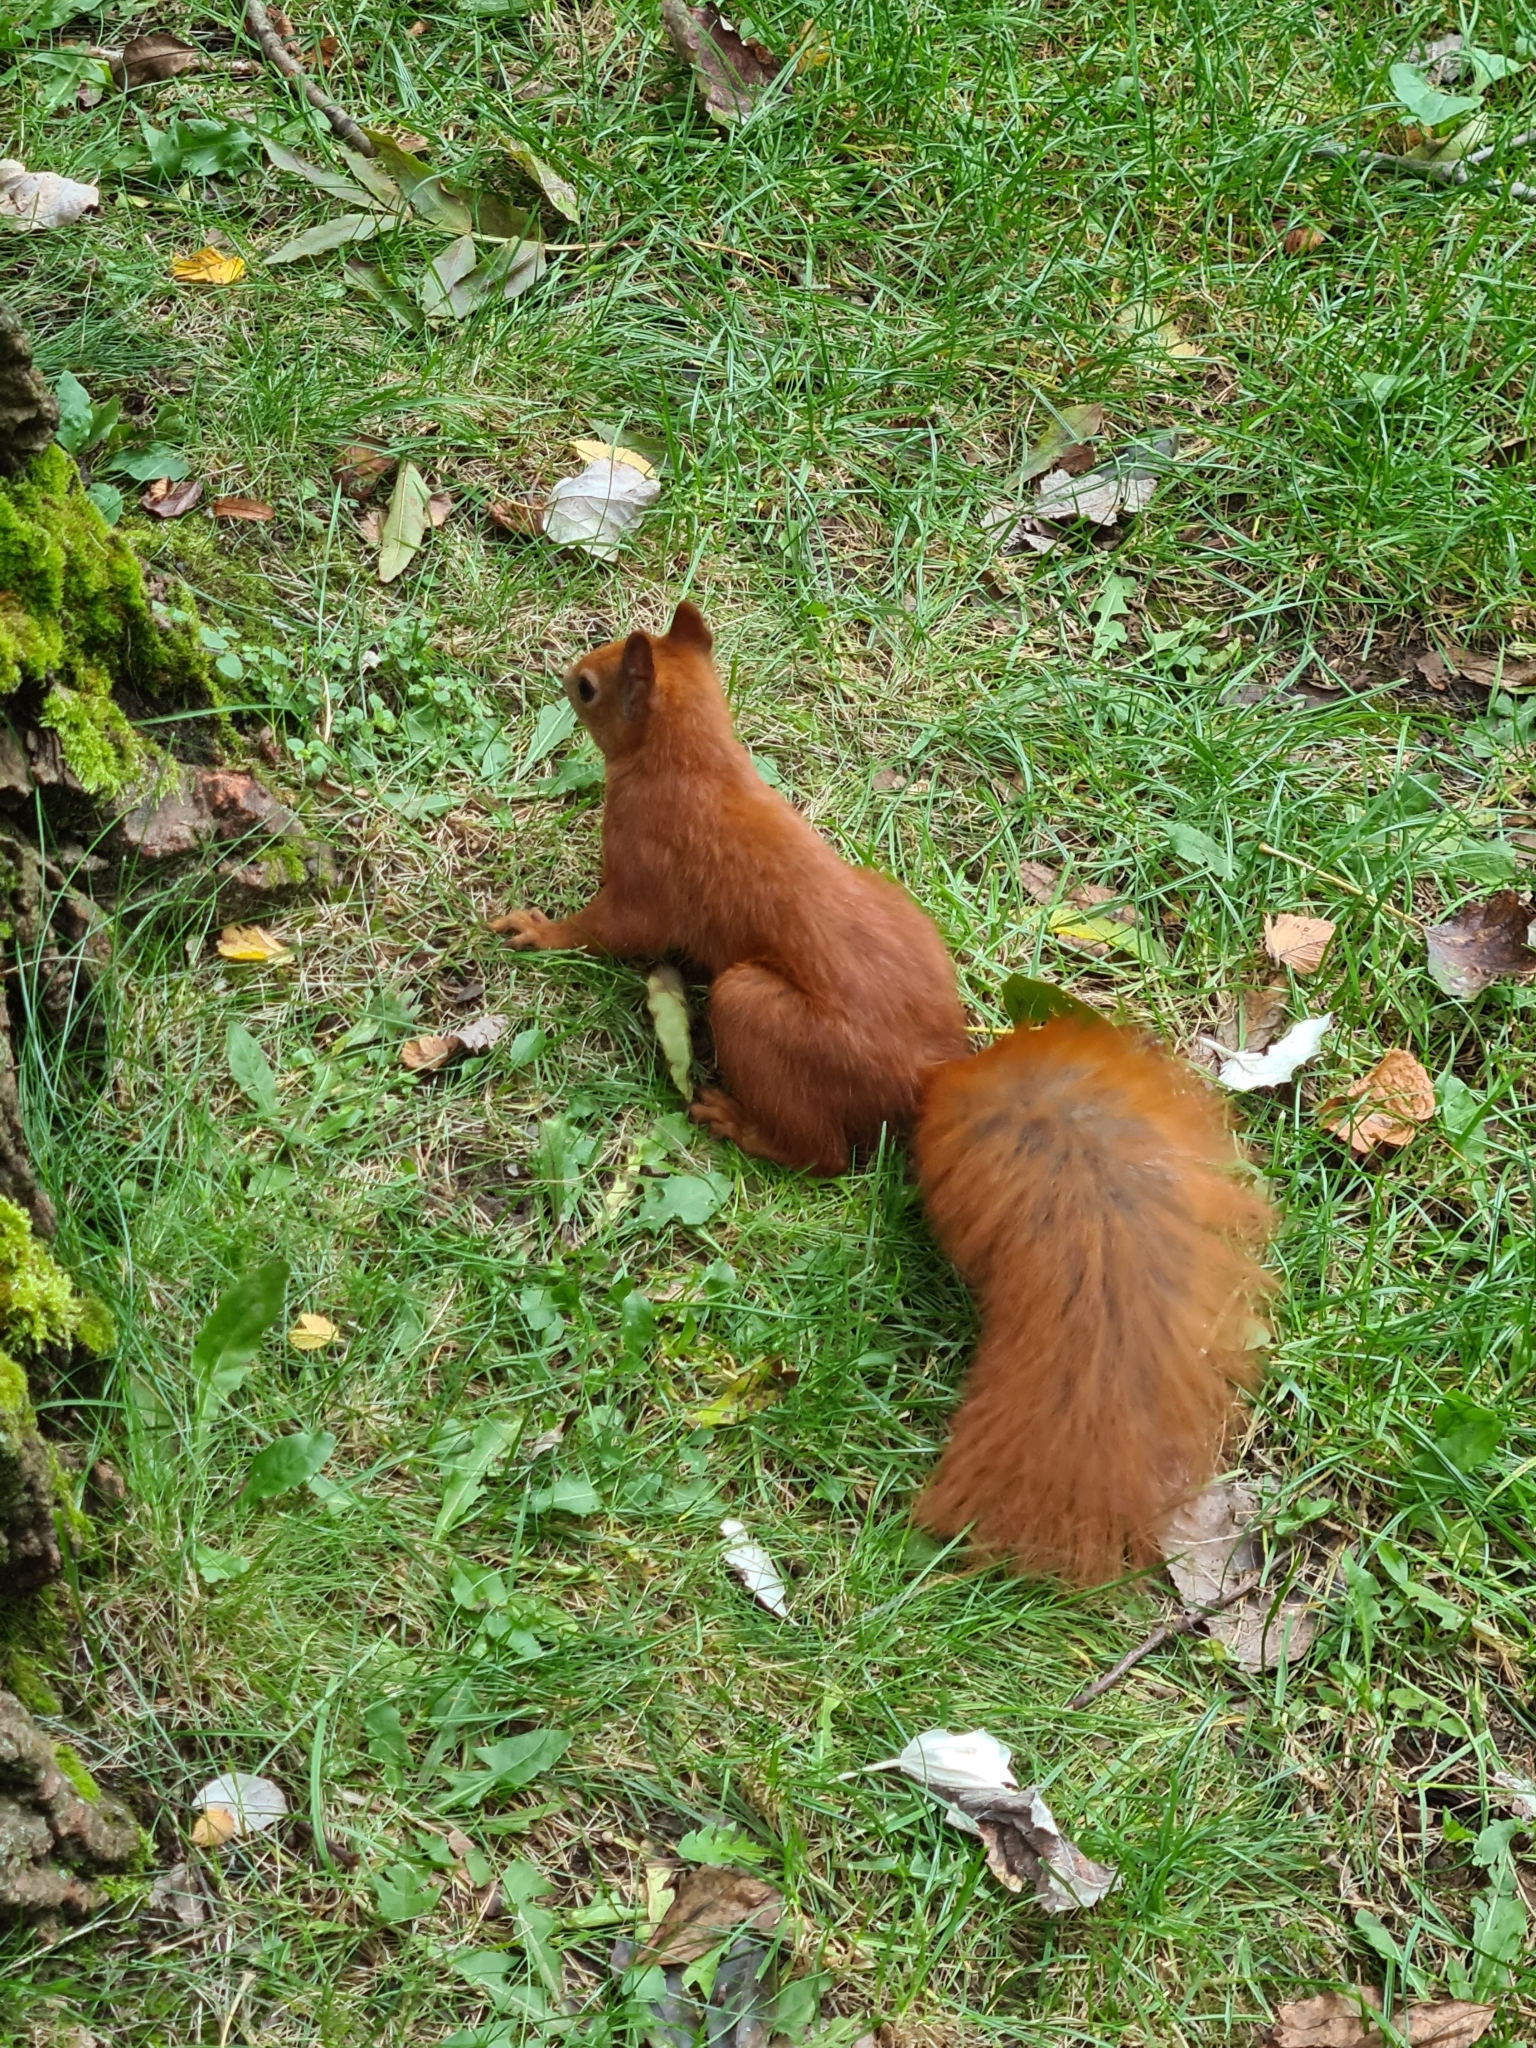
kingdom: Animalia
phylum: Chordata
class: Mammalia
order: Rodentia
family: Sciuridae
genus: Sciurus
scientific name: Sciurus vulgaris
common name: Eurasian red squirrel
